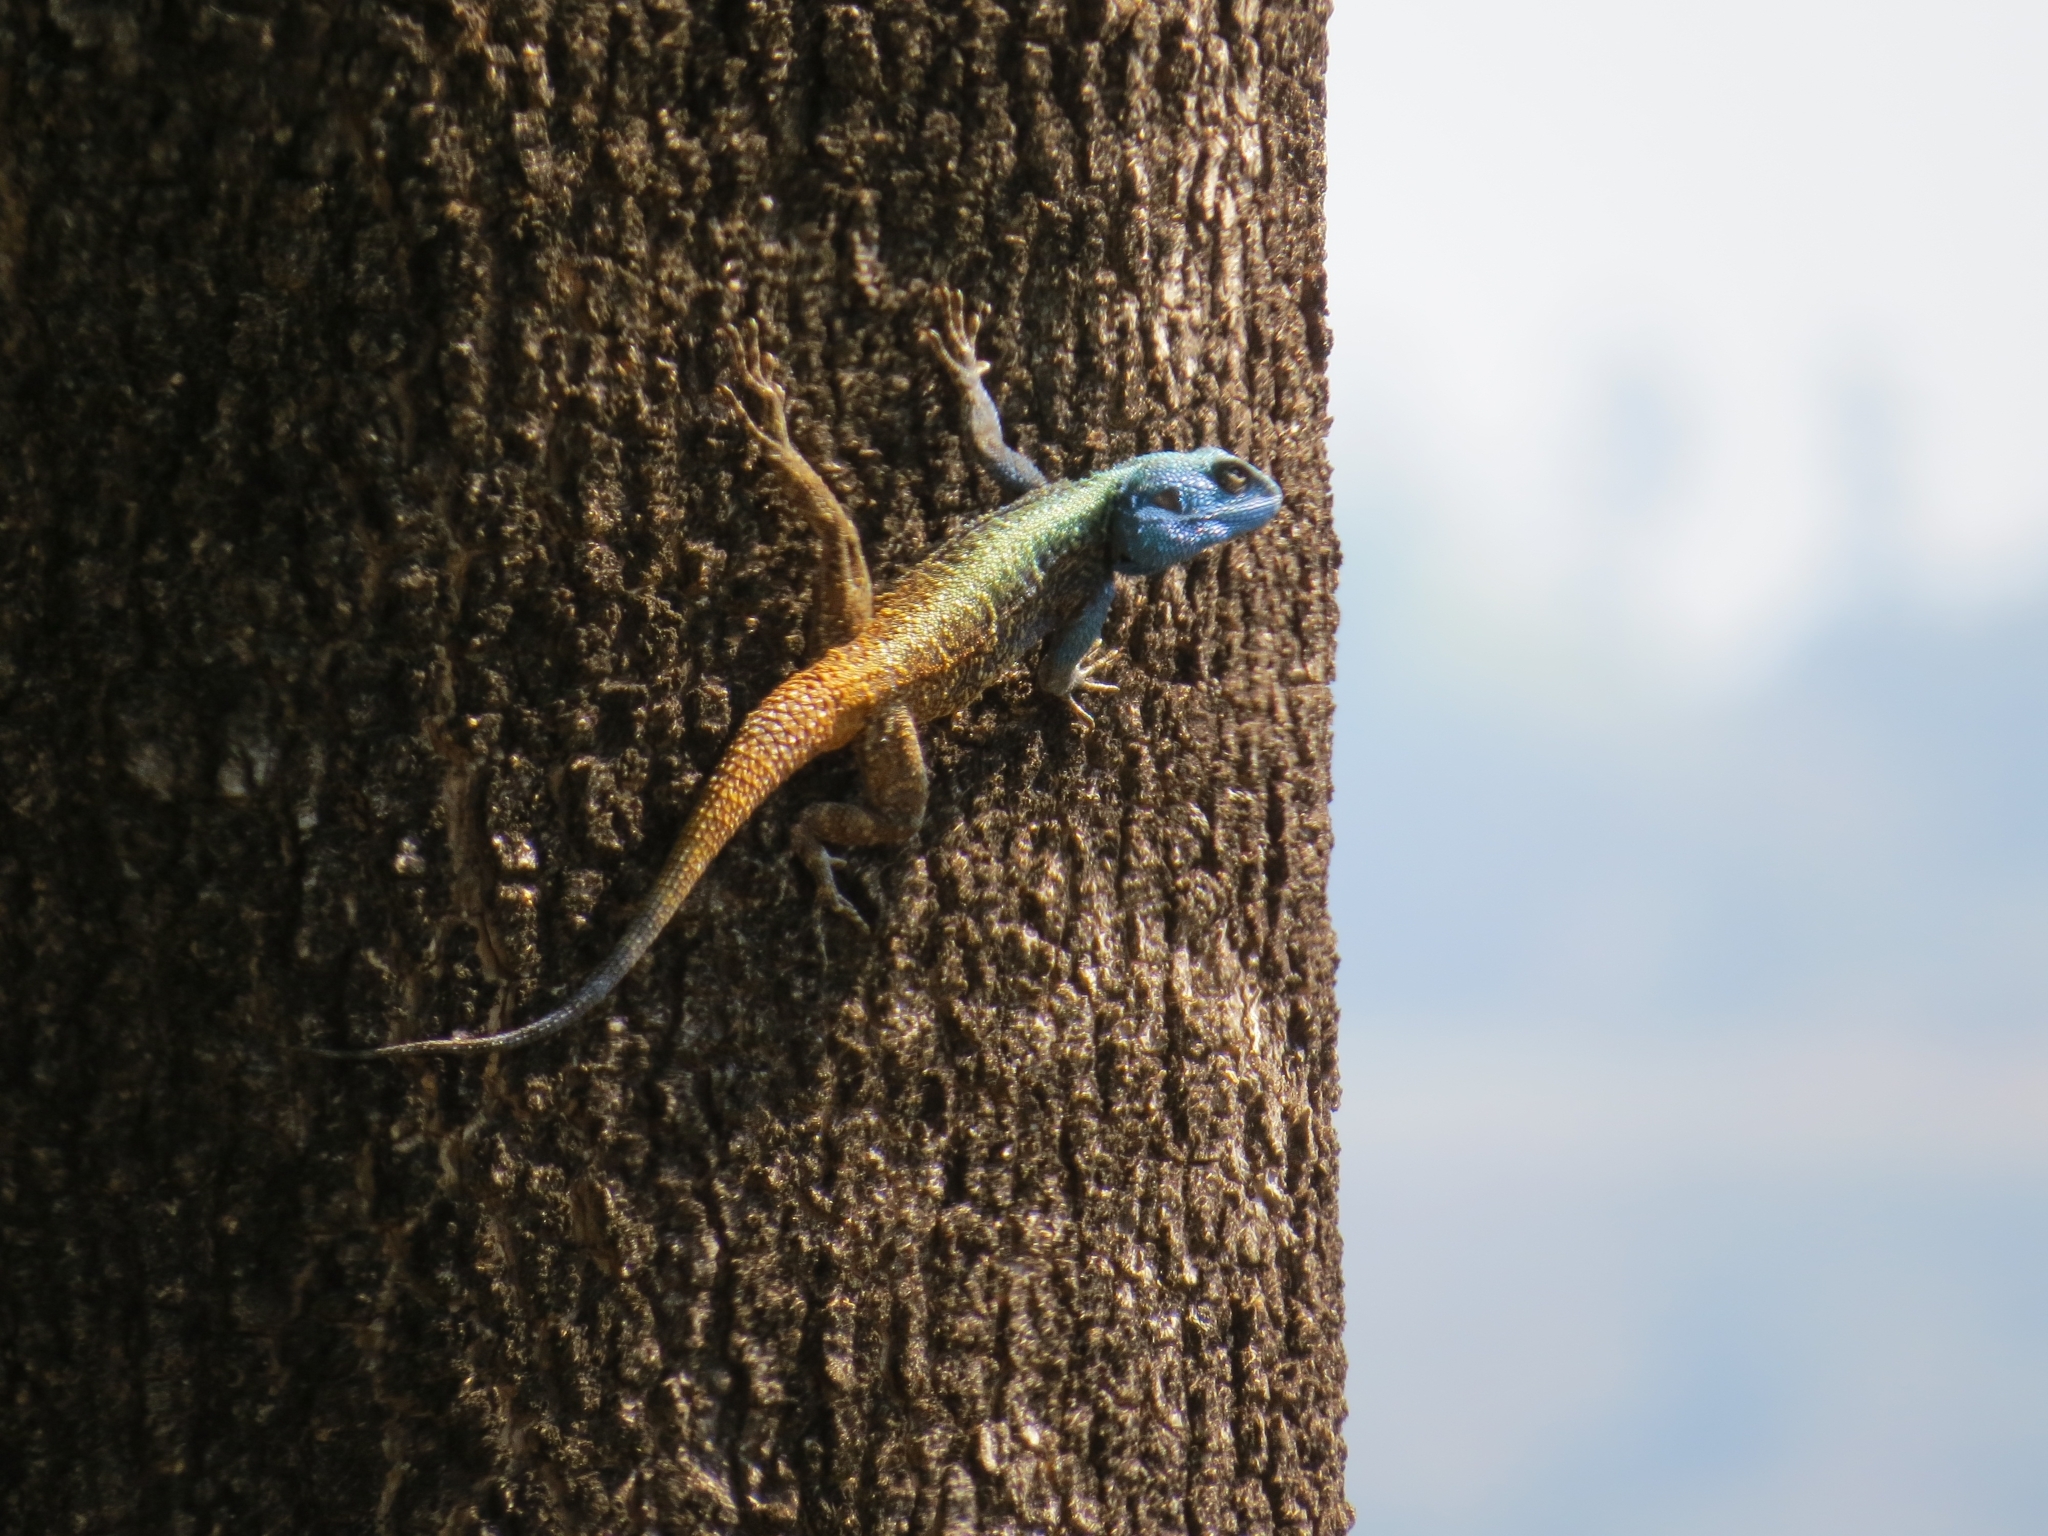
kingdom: Animalia
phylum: Chordata
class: Squamata
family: Agamidae
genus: Acanthocercus
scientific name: Acanthocercus atricollis
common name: Southern tree agama
